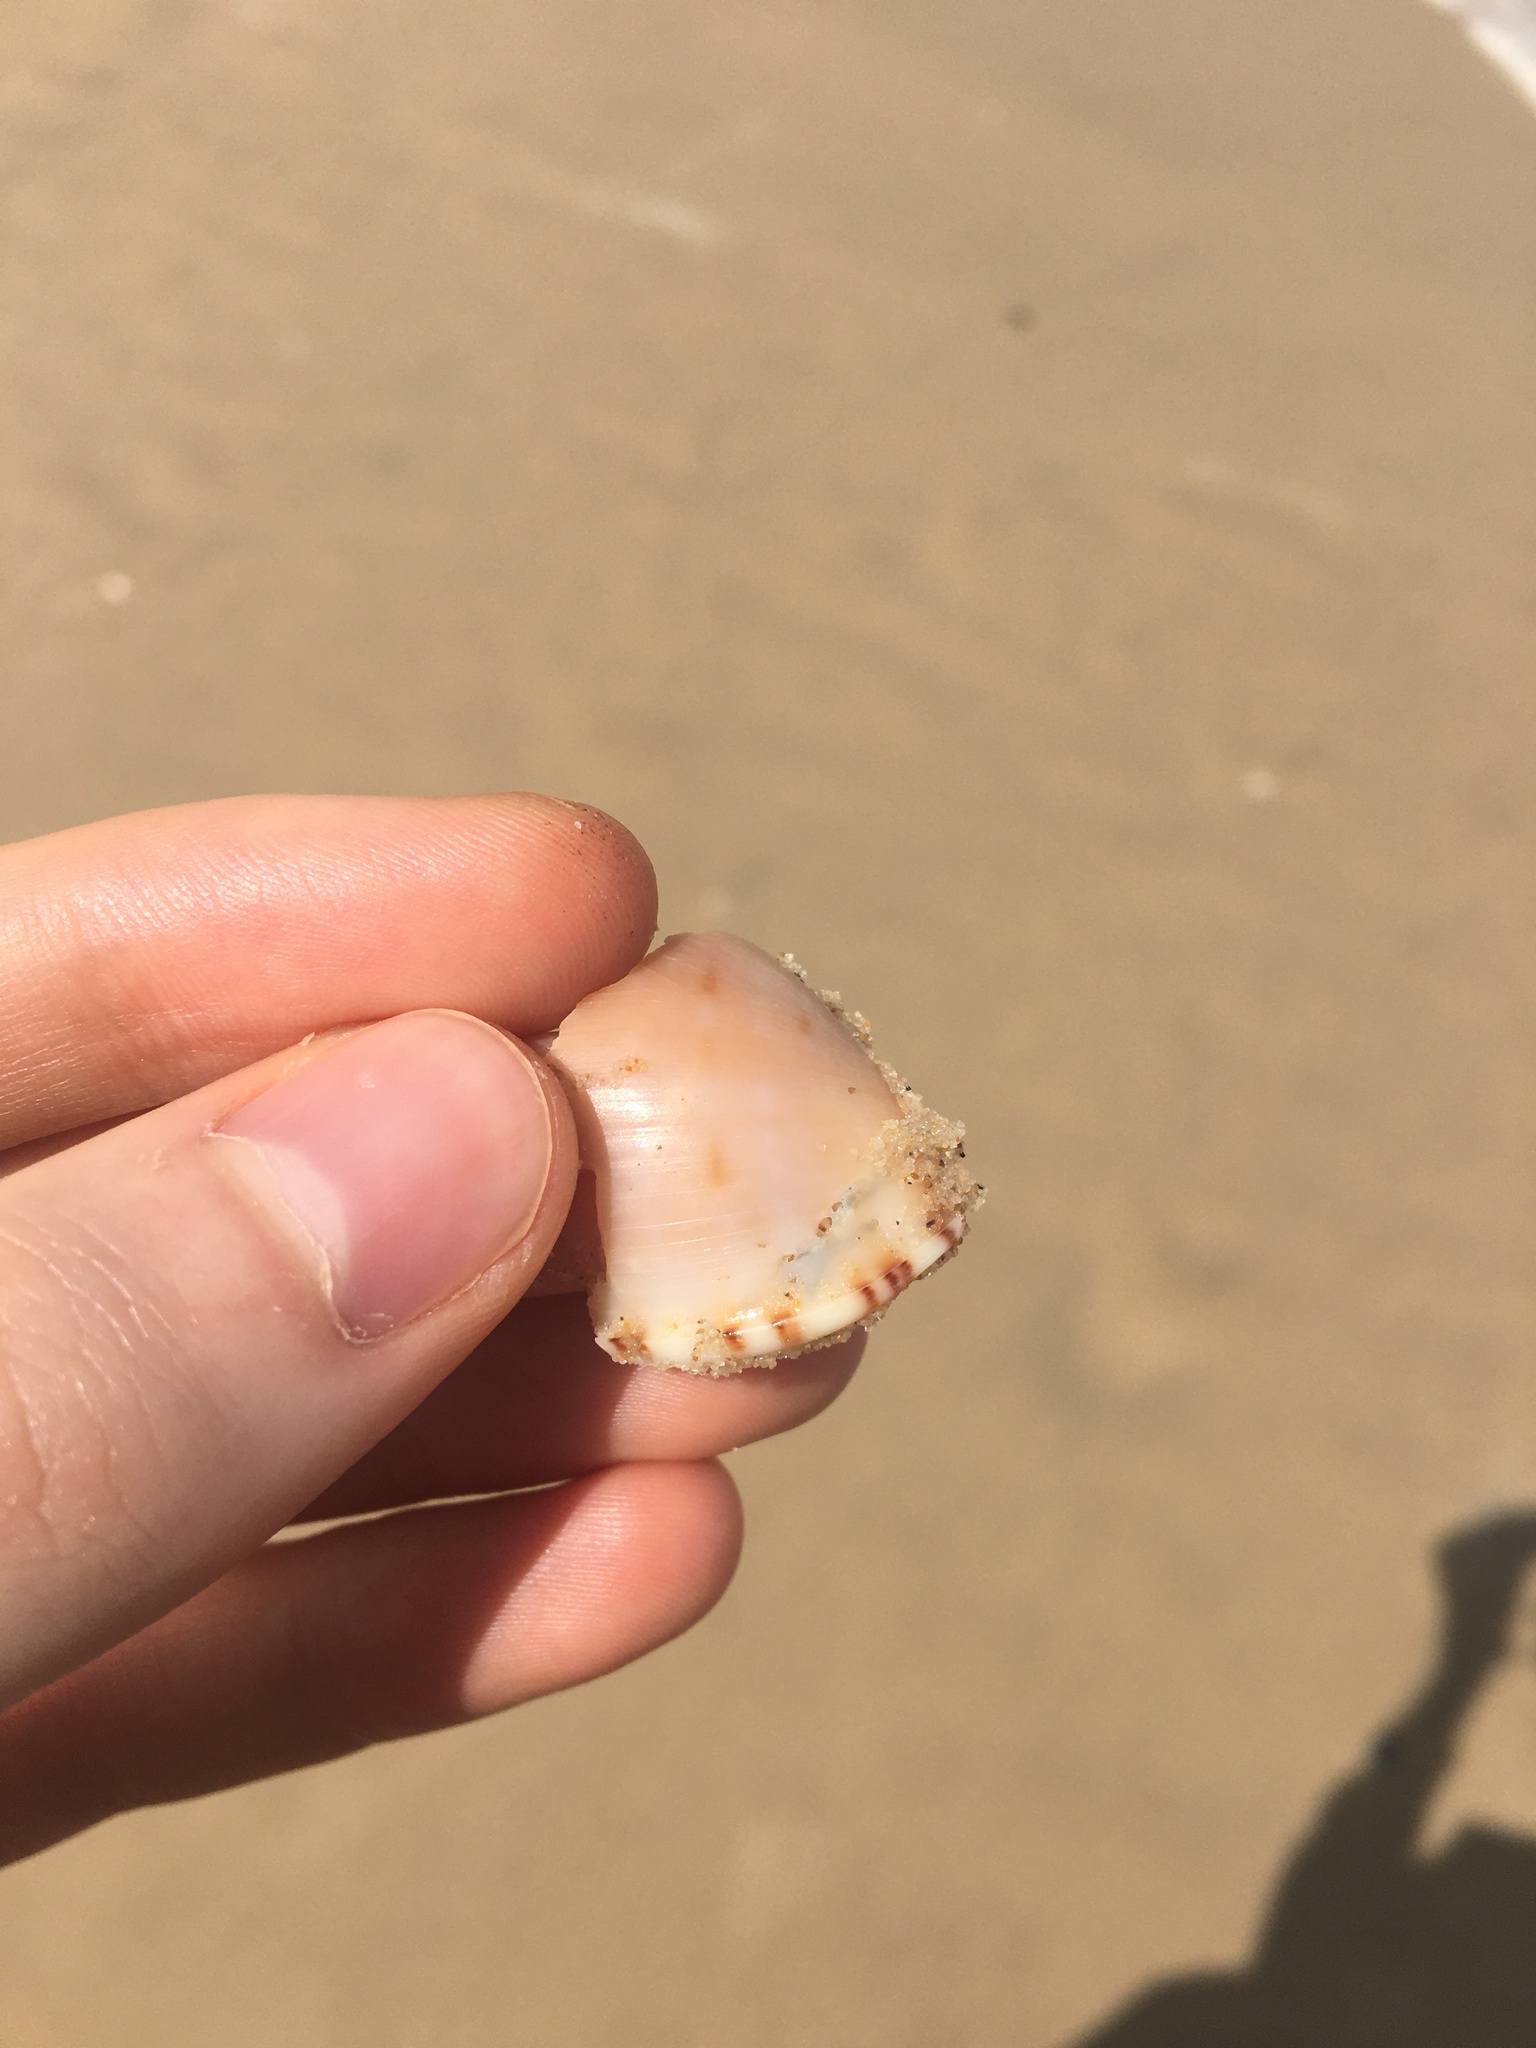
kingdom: Animalia
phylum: Mollusca
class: Gastropoda
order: Littorinimorpha
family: Cassidae
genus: Semicassis
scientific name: Semicassis labiata
